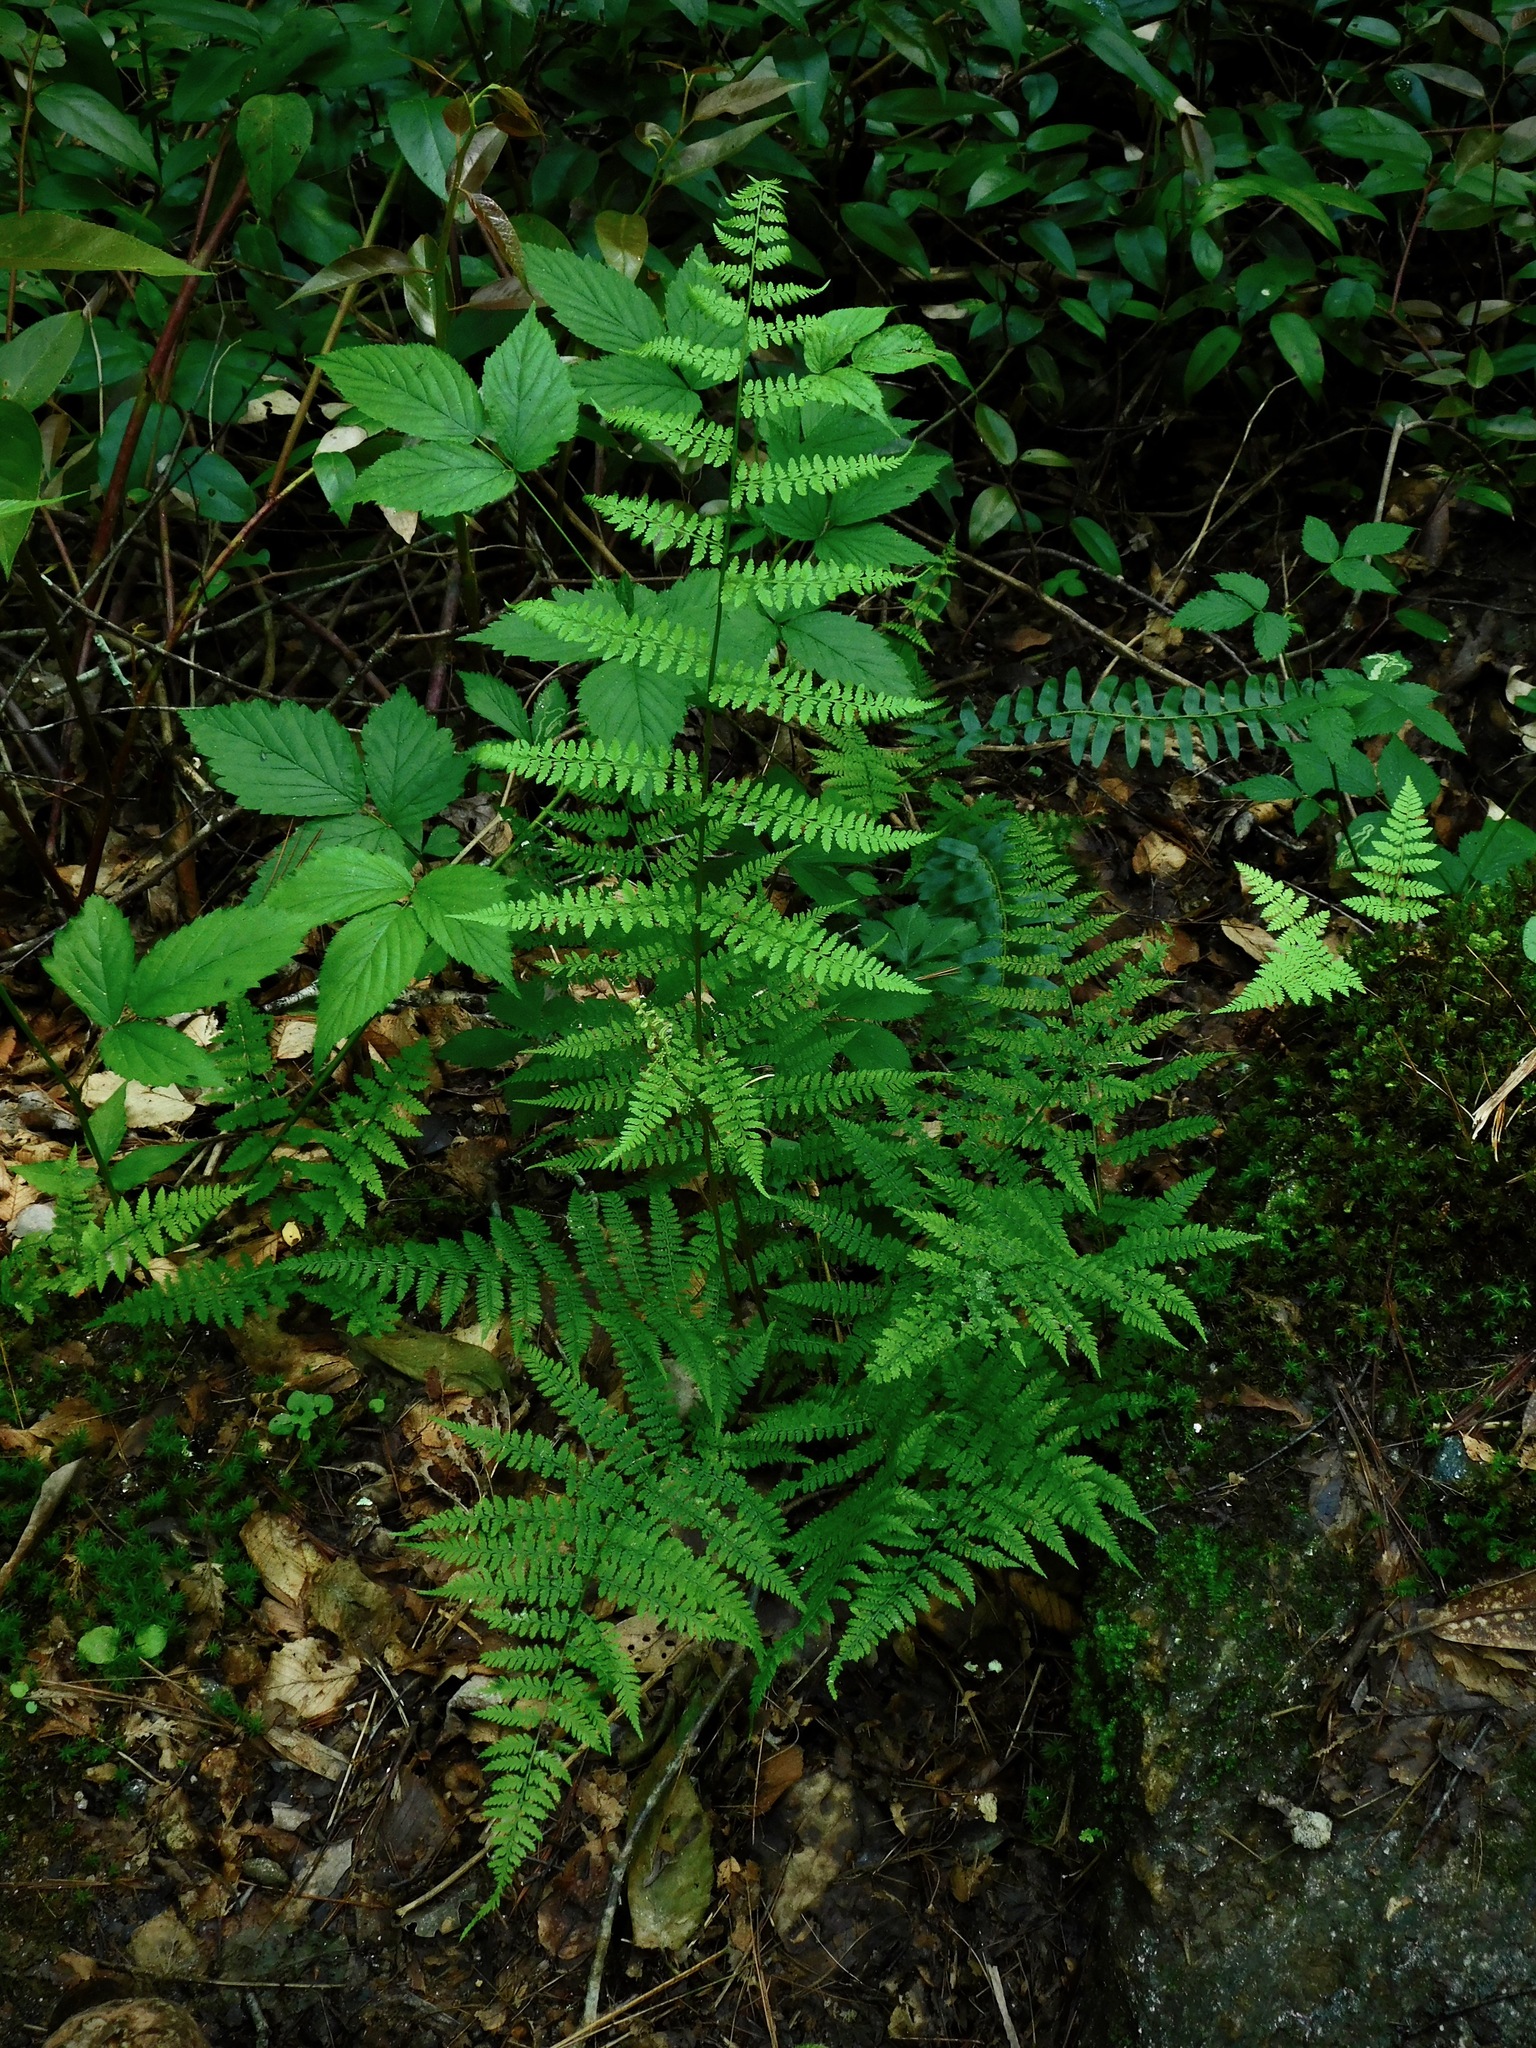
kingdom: Plantae
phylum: Tracheophyta
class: Polypodiopsida
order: Polypodiales
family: Athyriaceae
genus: Athyrium
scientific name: Athyrium asplenioides
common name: Southern lady fern
